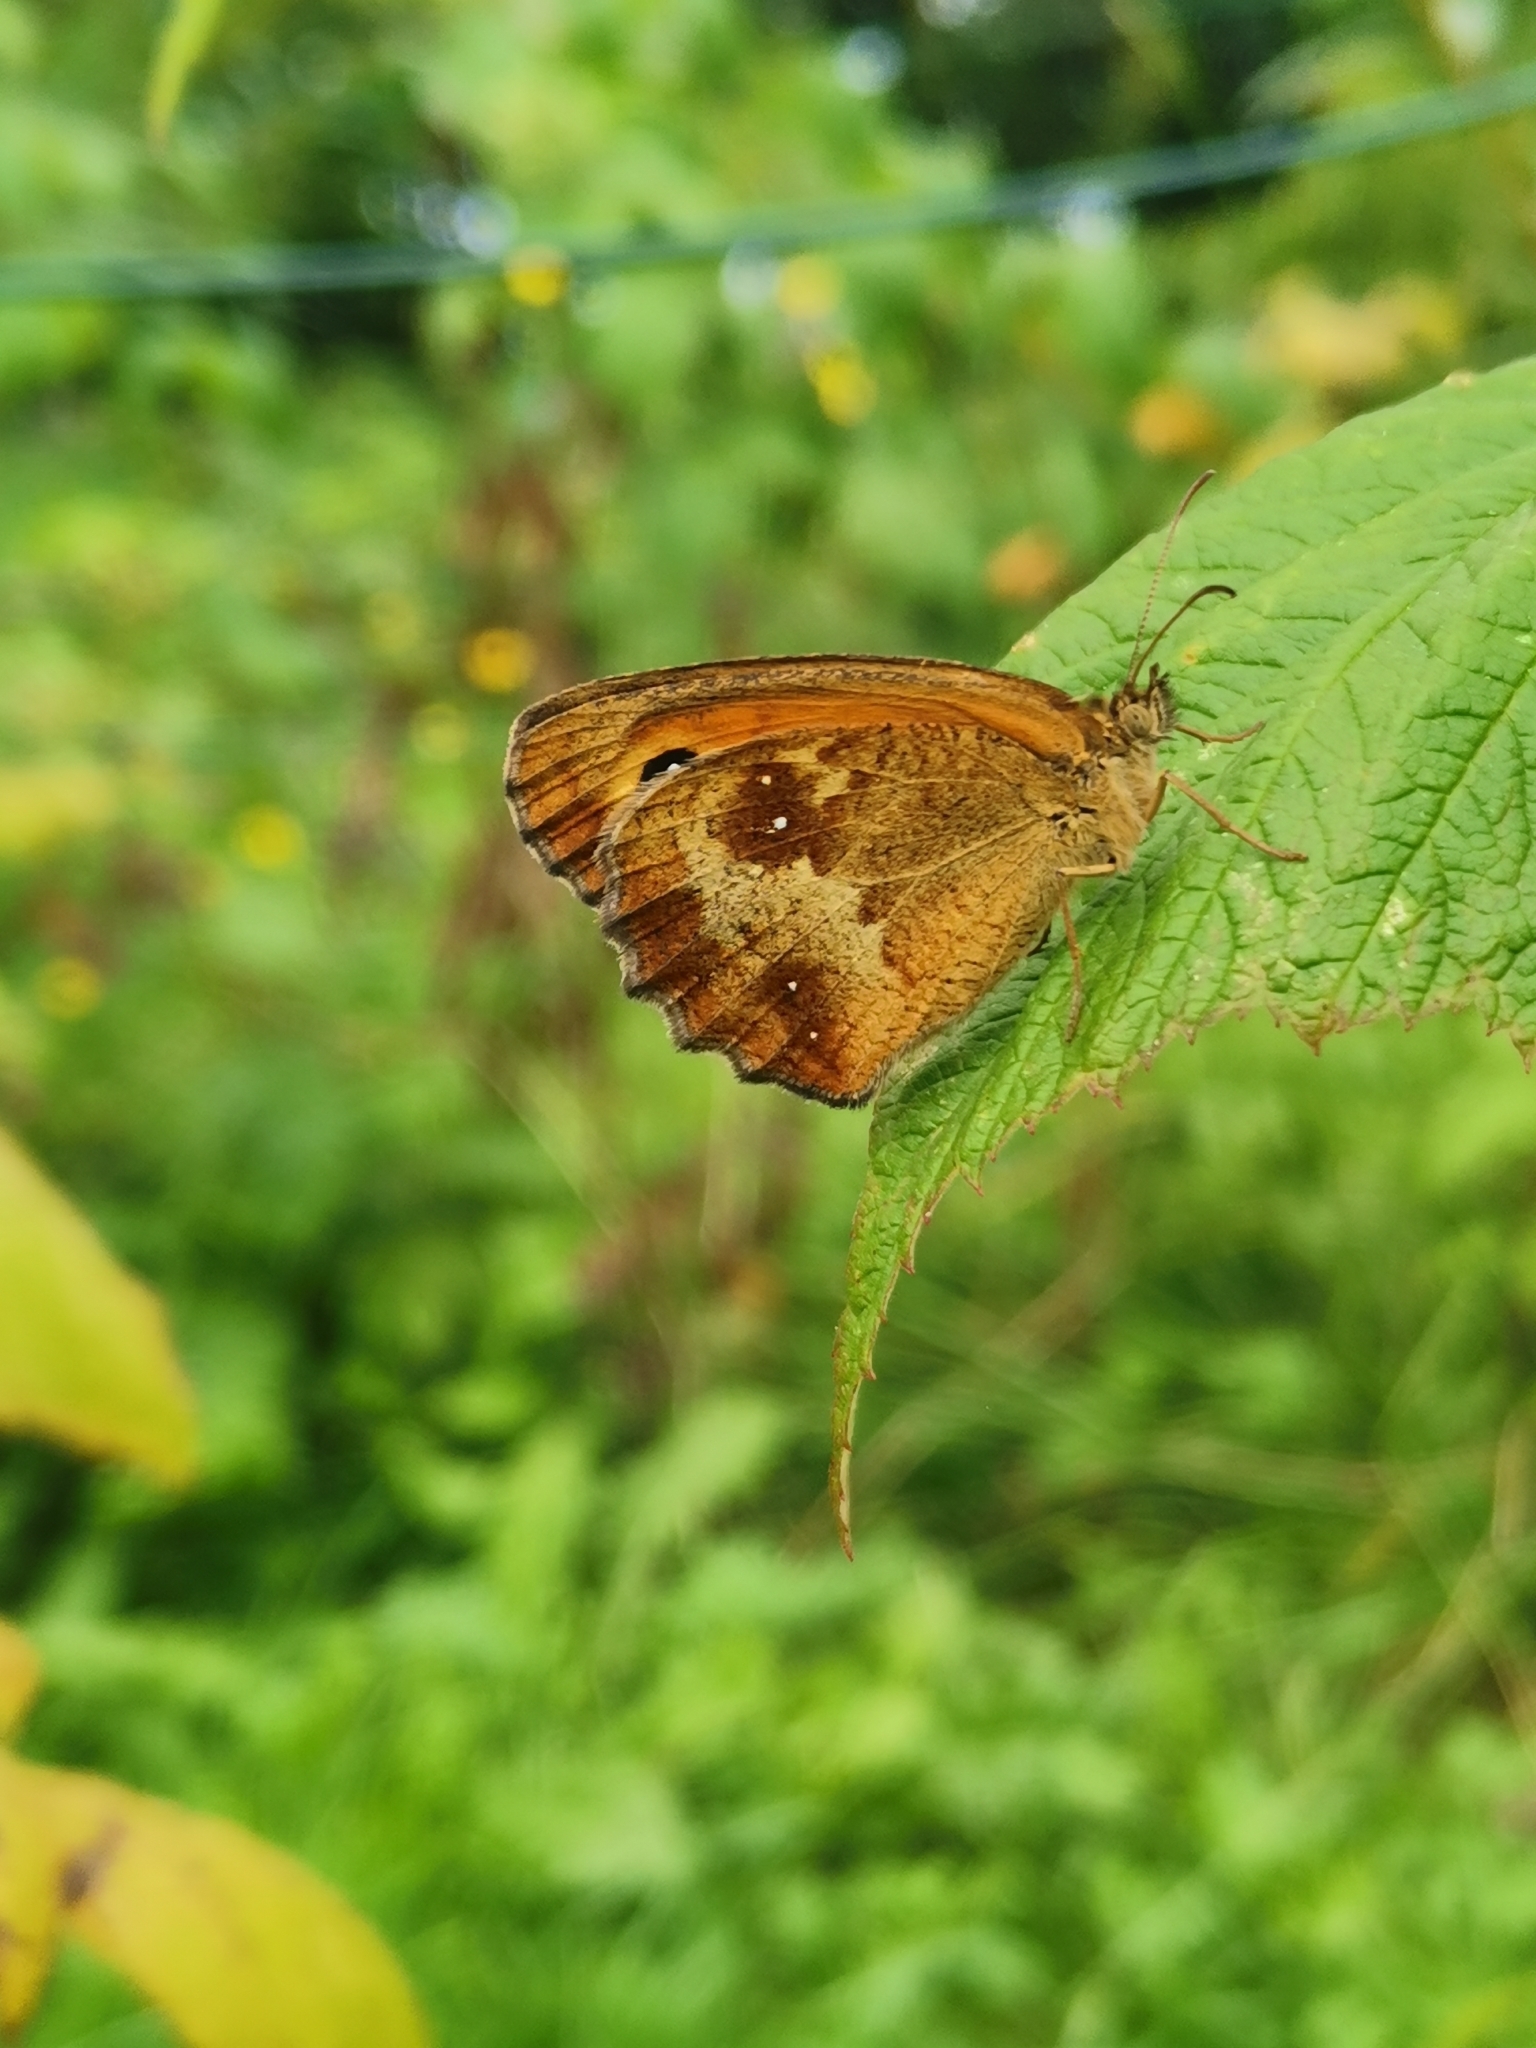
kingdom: Animalia
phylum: Arthropoda
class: Insecta
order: Lepidoptera
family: Nymphalidae
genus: Pyronia
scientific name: Pyronia tithonus
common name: Gatekeeper
